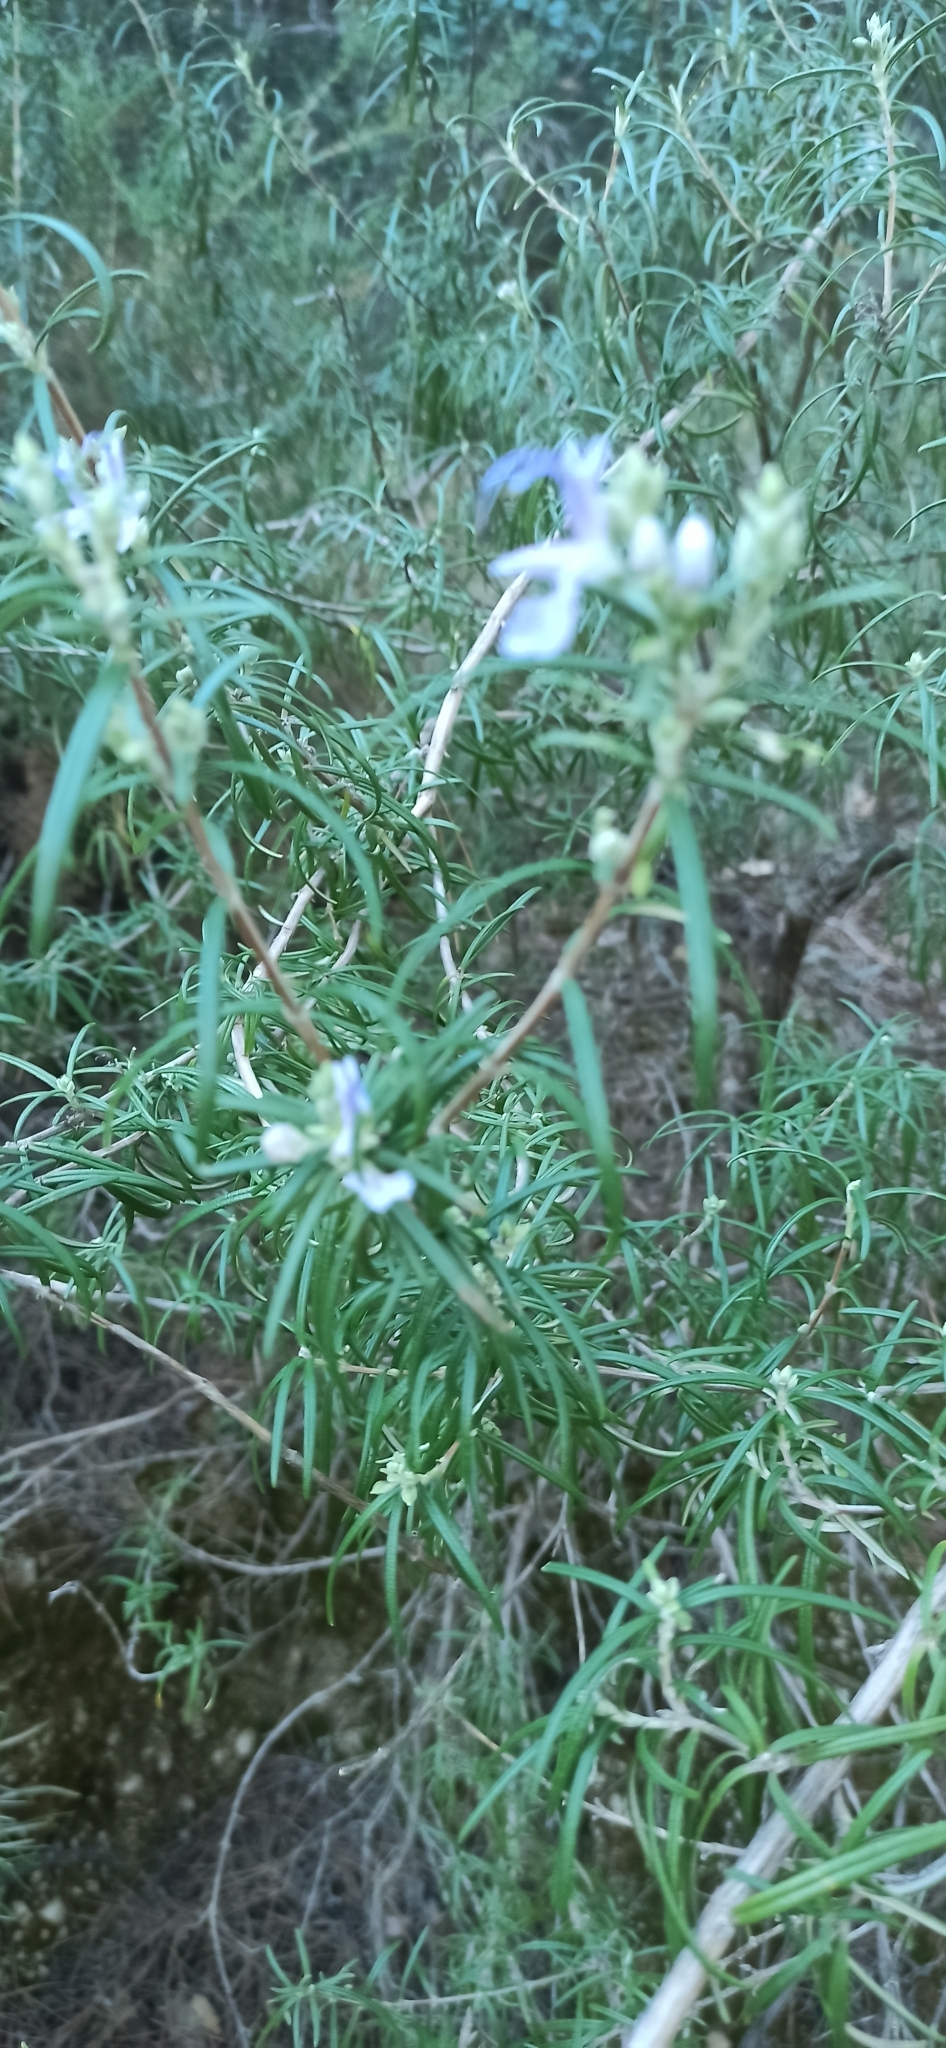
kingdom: Plantae
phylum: Tracheophyta
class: Magnoliopsida
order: Lamiales
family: Lamiaceae
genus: Salvia
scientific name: Salvia rosmarinus
